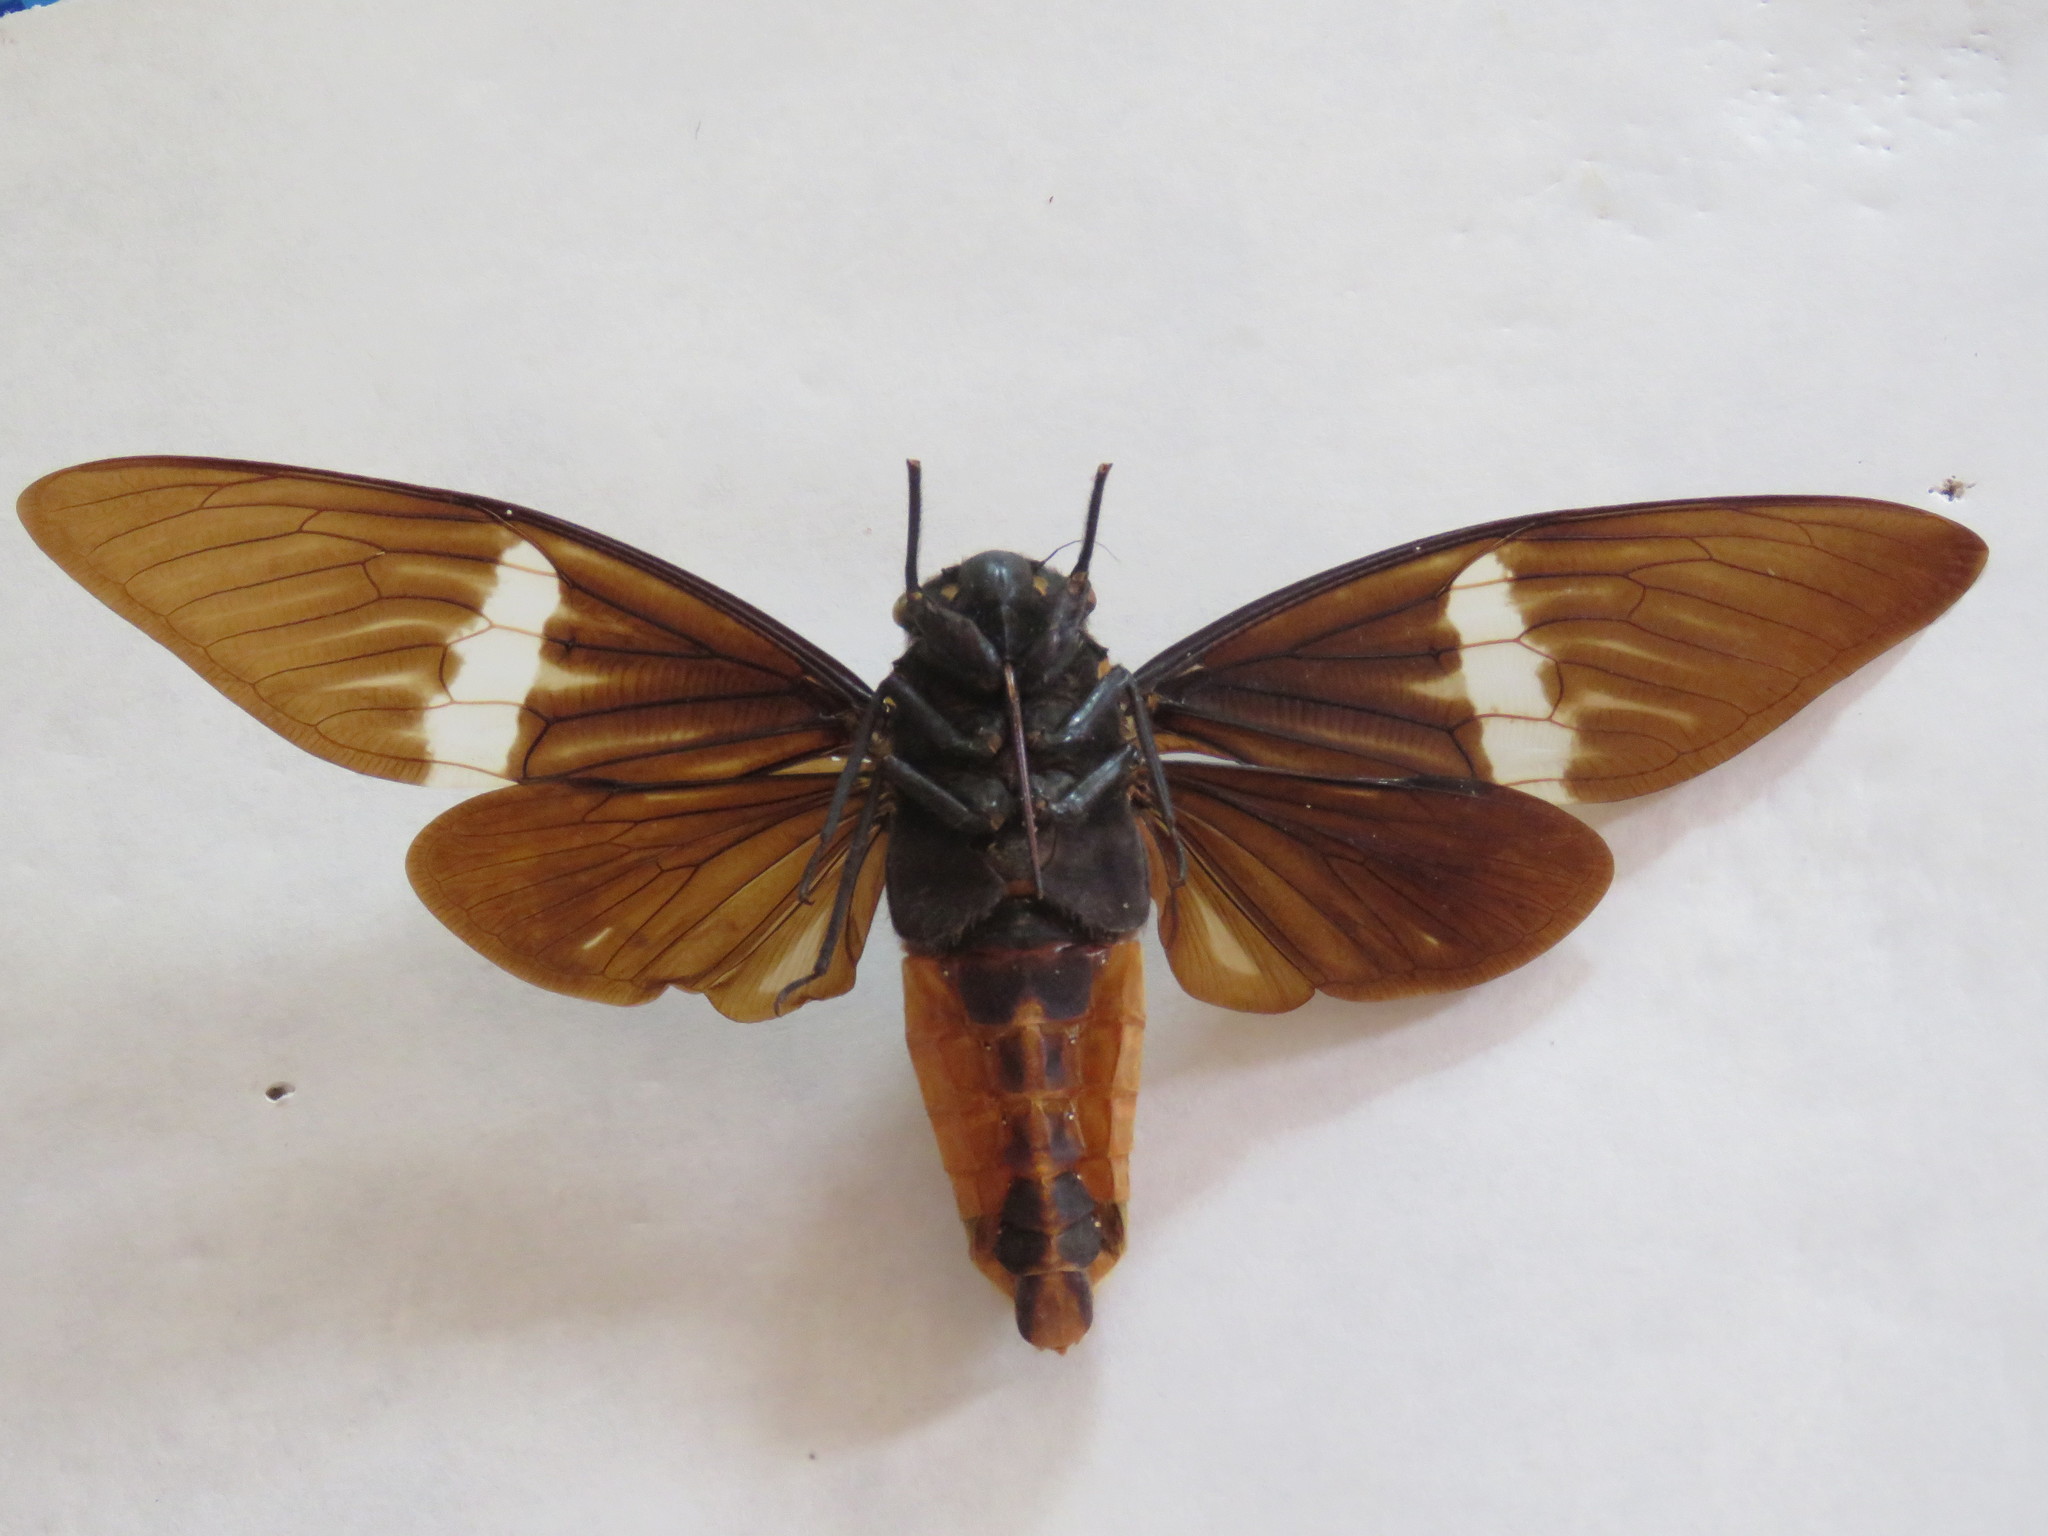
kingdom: Animalia
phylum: Arthropoda
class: Insecta
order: Hemiptera
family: Cicadidae
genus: Tosena
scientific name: Tosena albata
